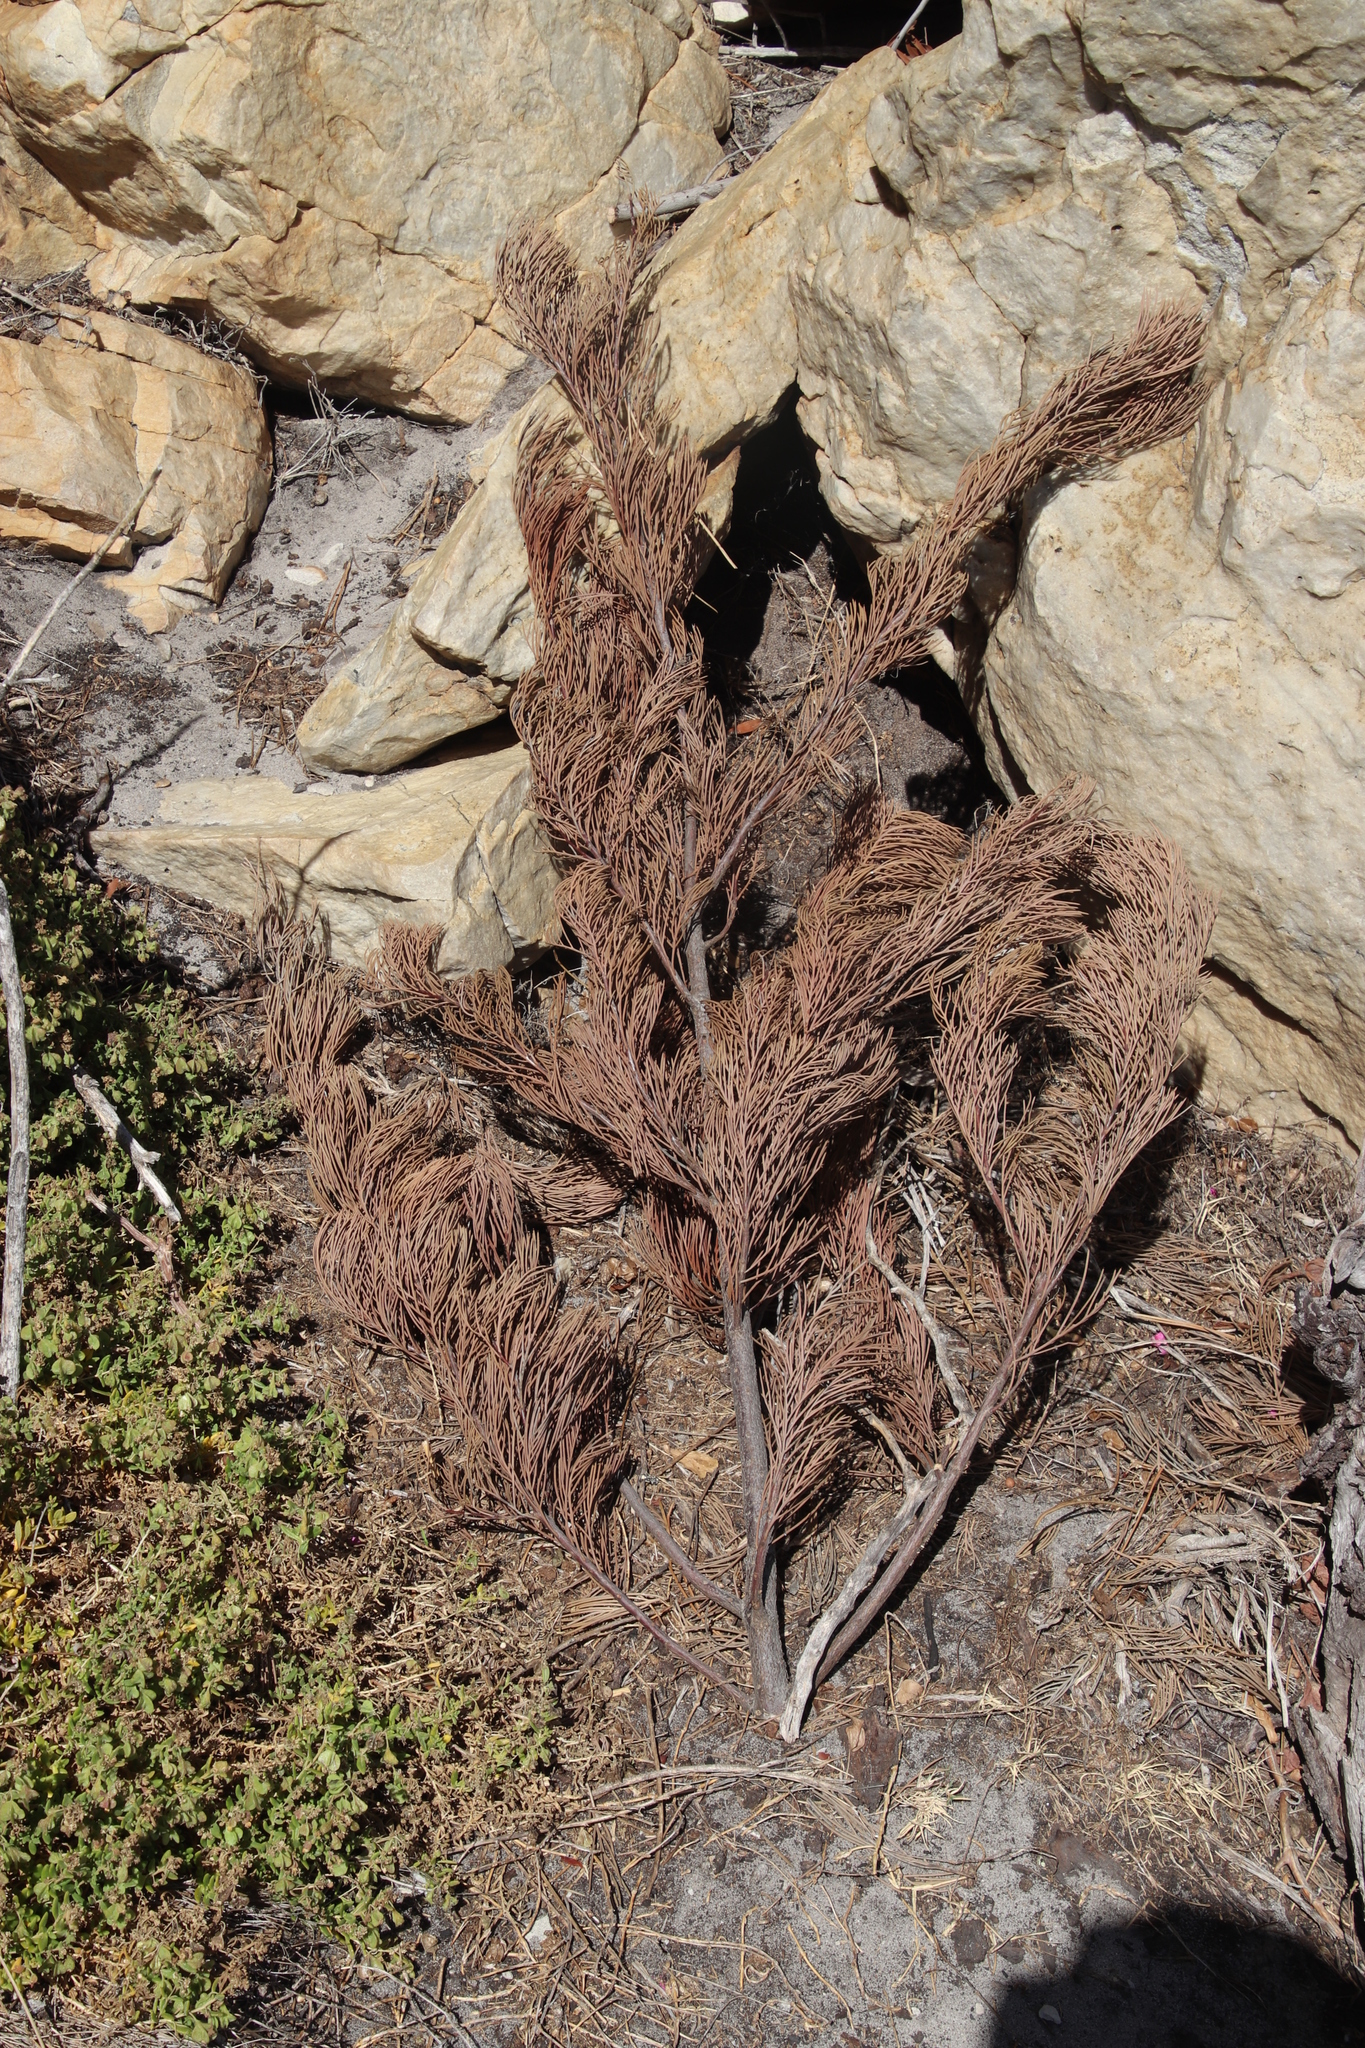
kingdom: Plantae
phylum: Tracheophyta
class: Magnoliopsida
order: Proteales
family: Proteaceae
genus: Hakea
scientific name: Hakea drupacea
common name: Sweet hakea
